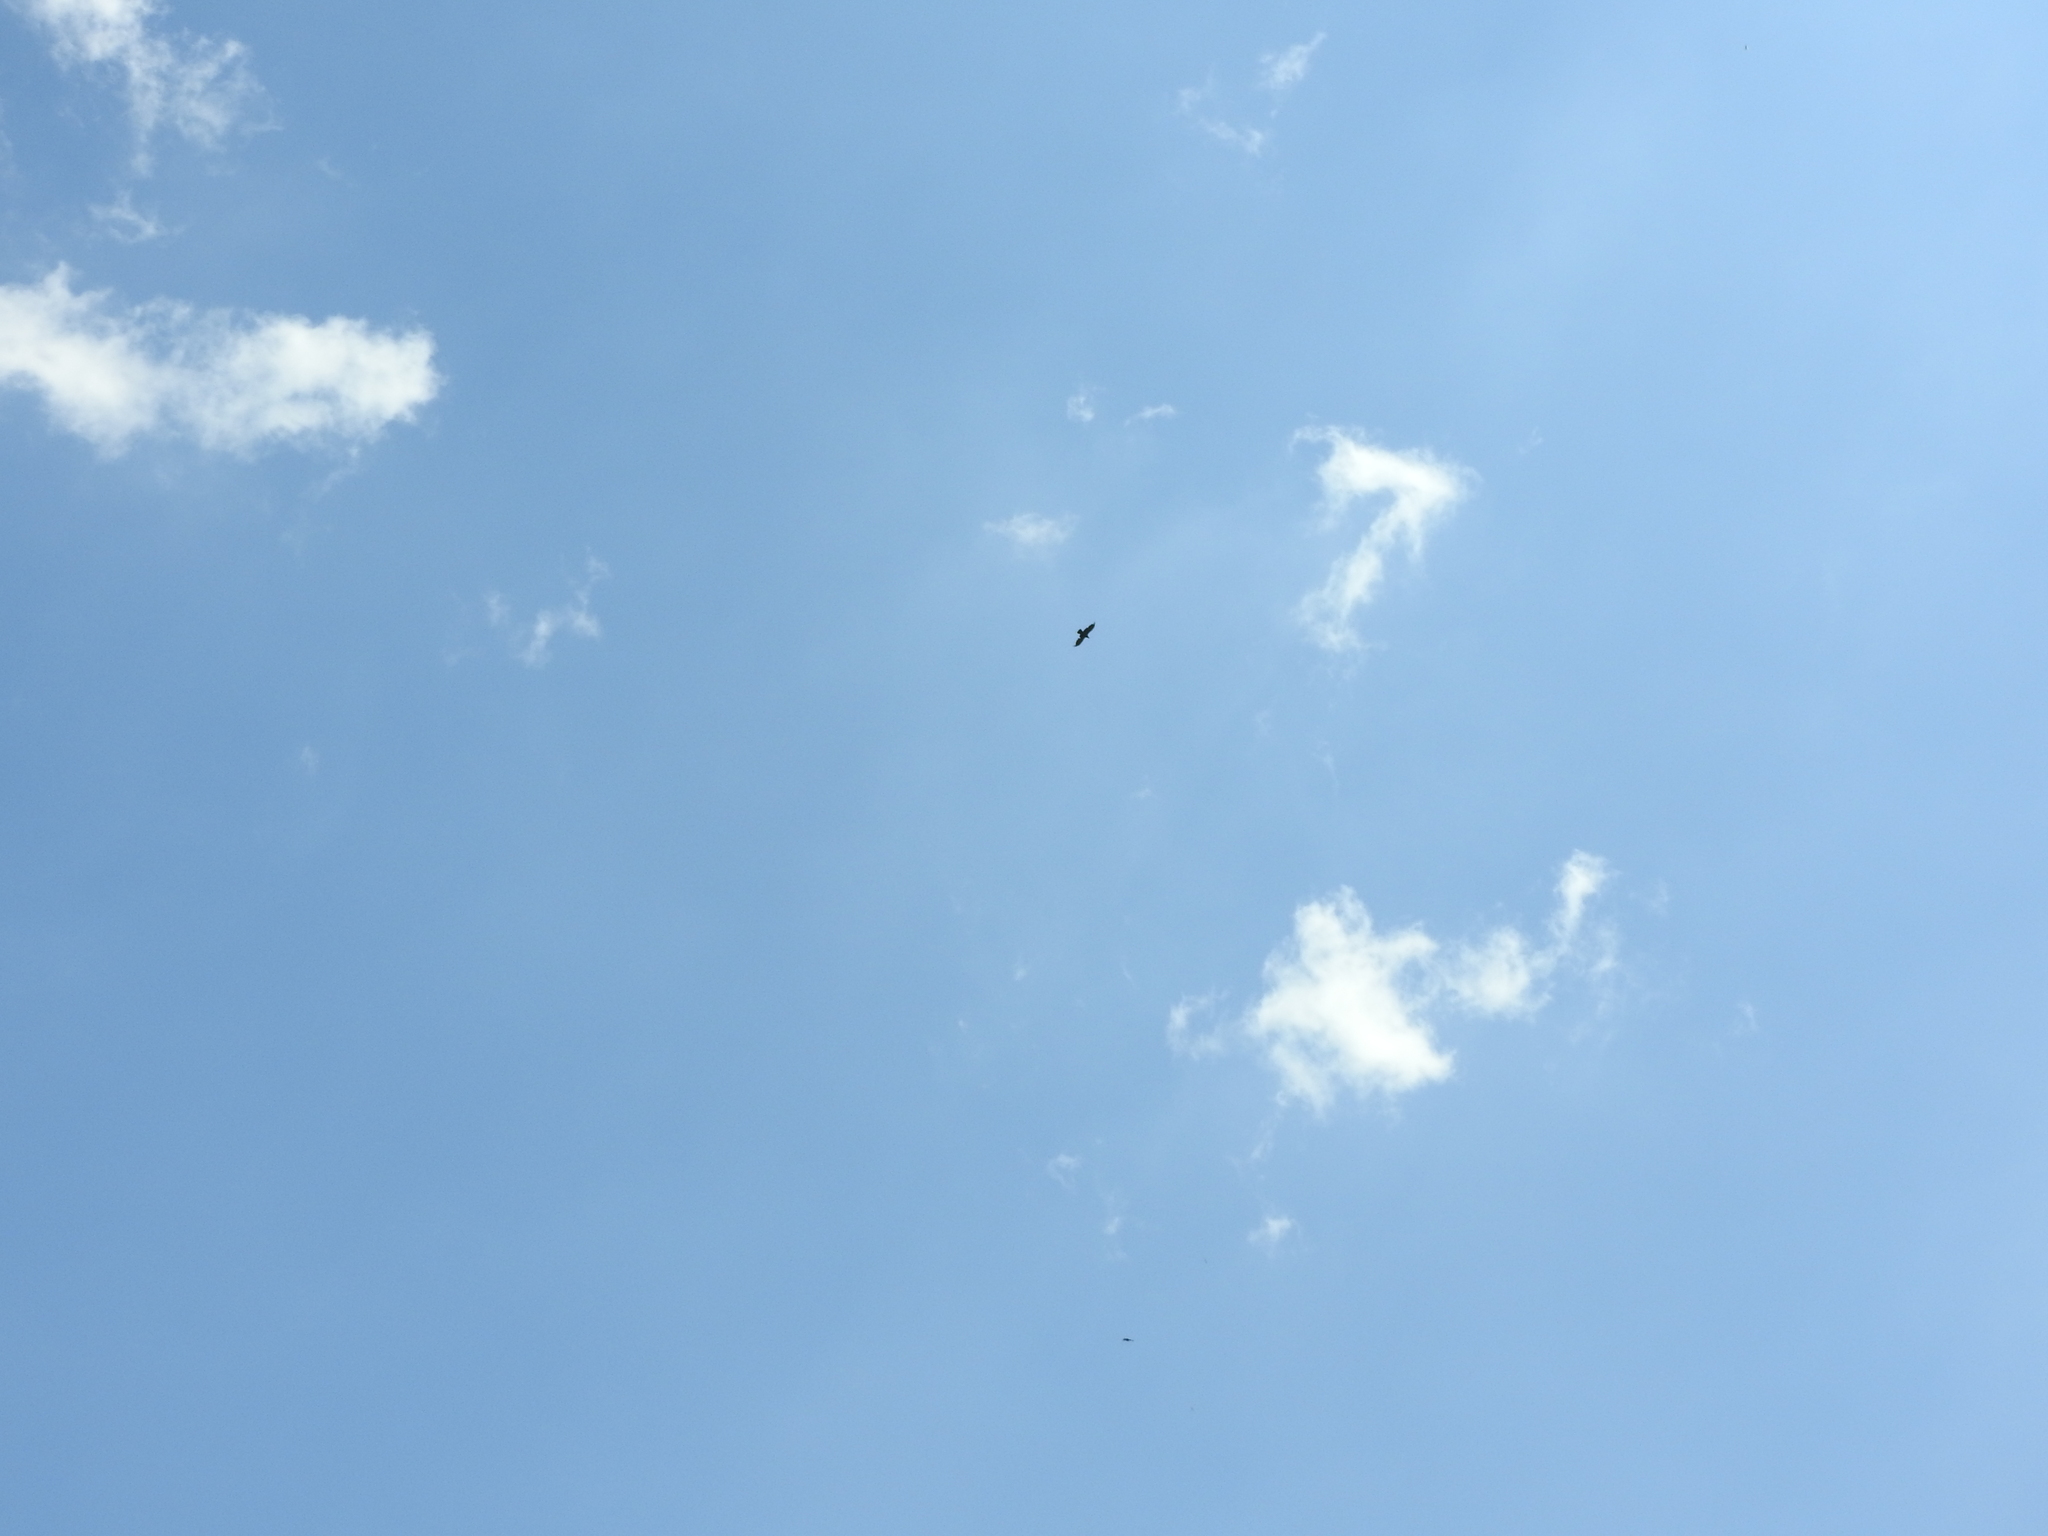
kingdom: Animalia
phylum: Chordata
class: Aves
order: Passeriformes
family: Corvidae
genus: Corvus
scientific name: Corvus corax
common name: Common raven
